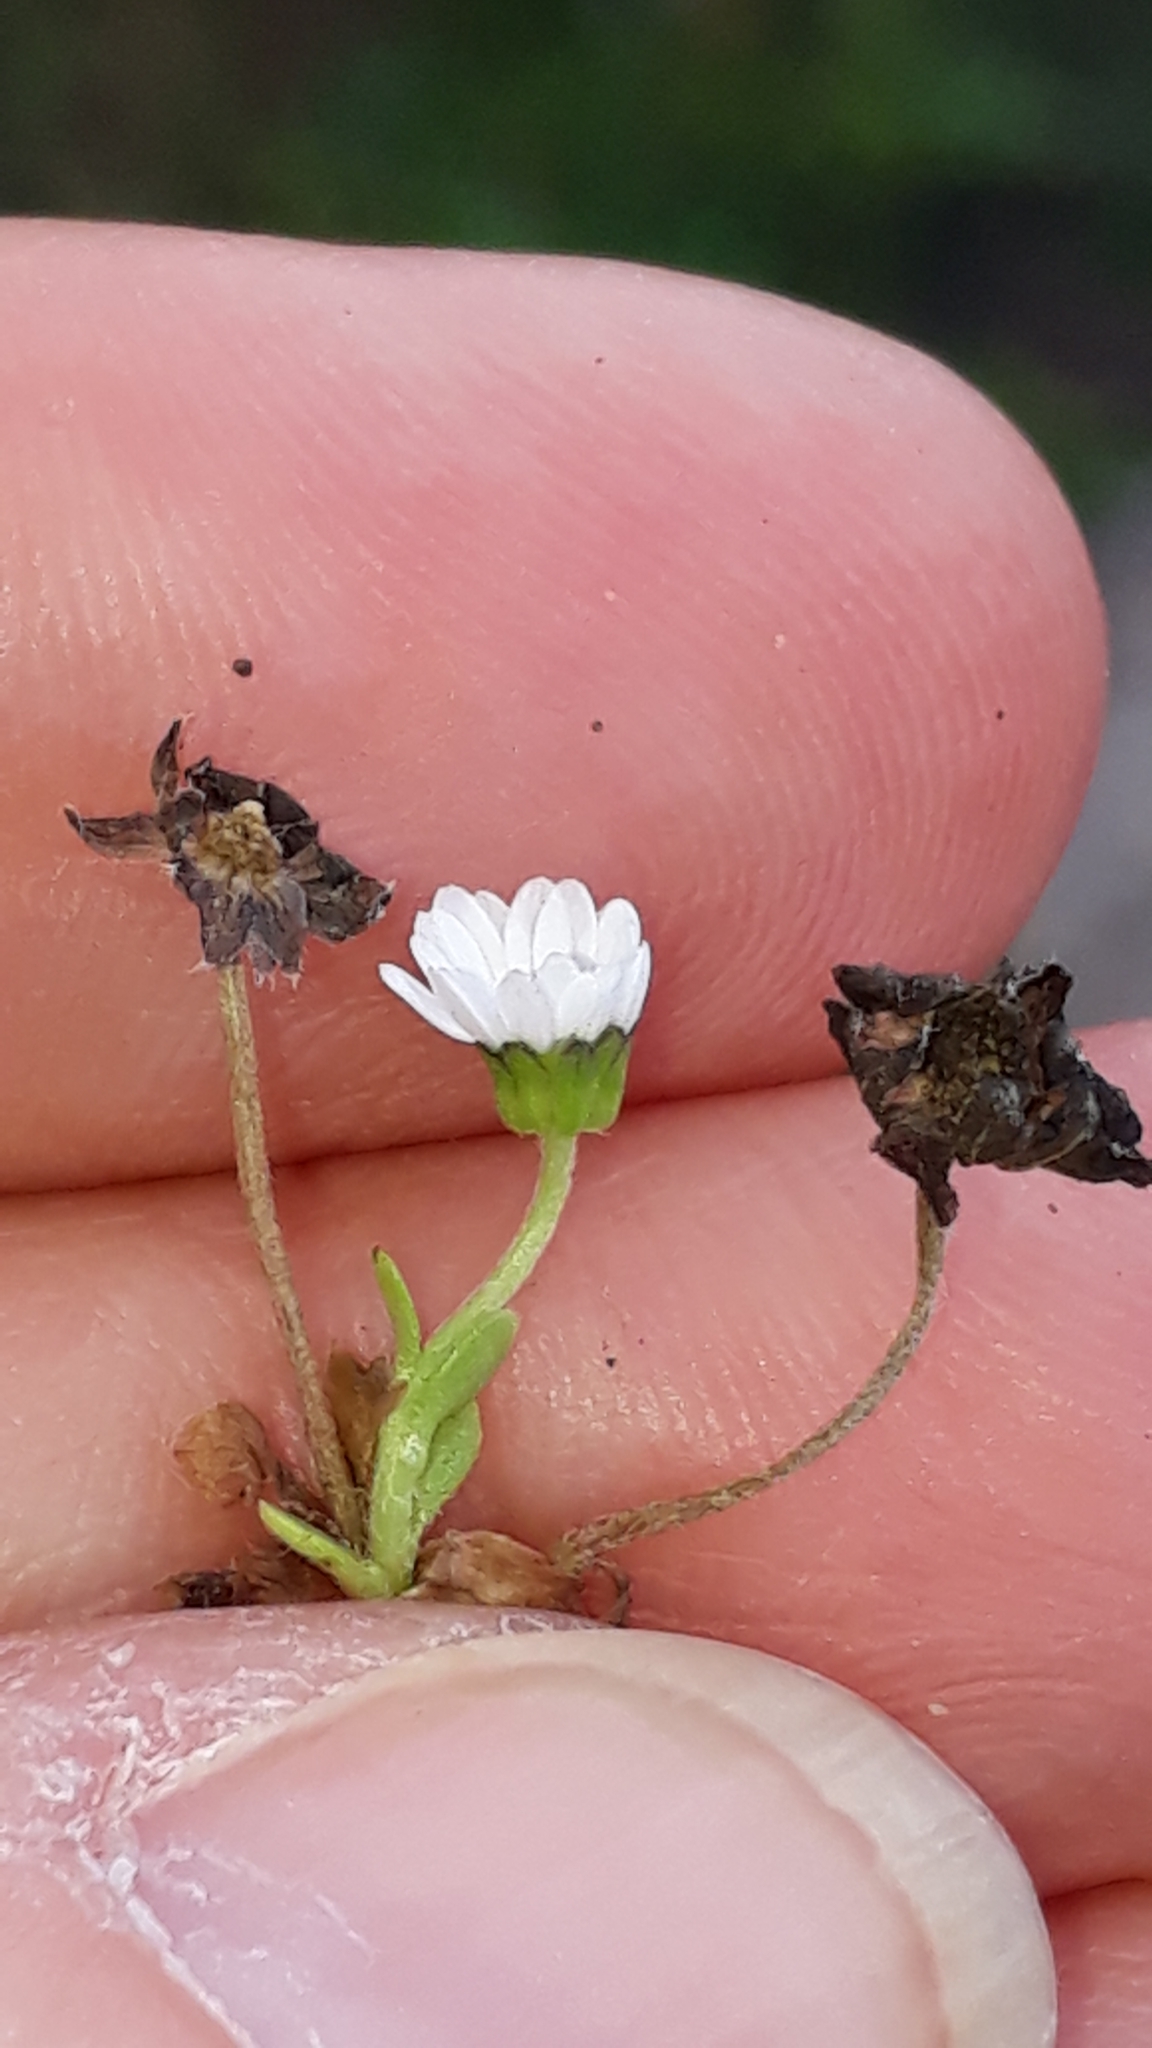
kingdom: Plantae
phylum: Tracheophyta
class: Magnoliopsida
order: Asterales
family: Asteraceae
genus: Bellis
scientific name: Bellis annua
